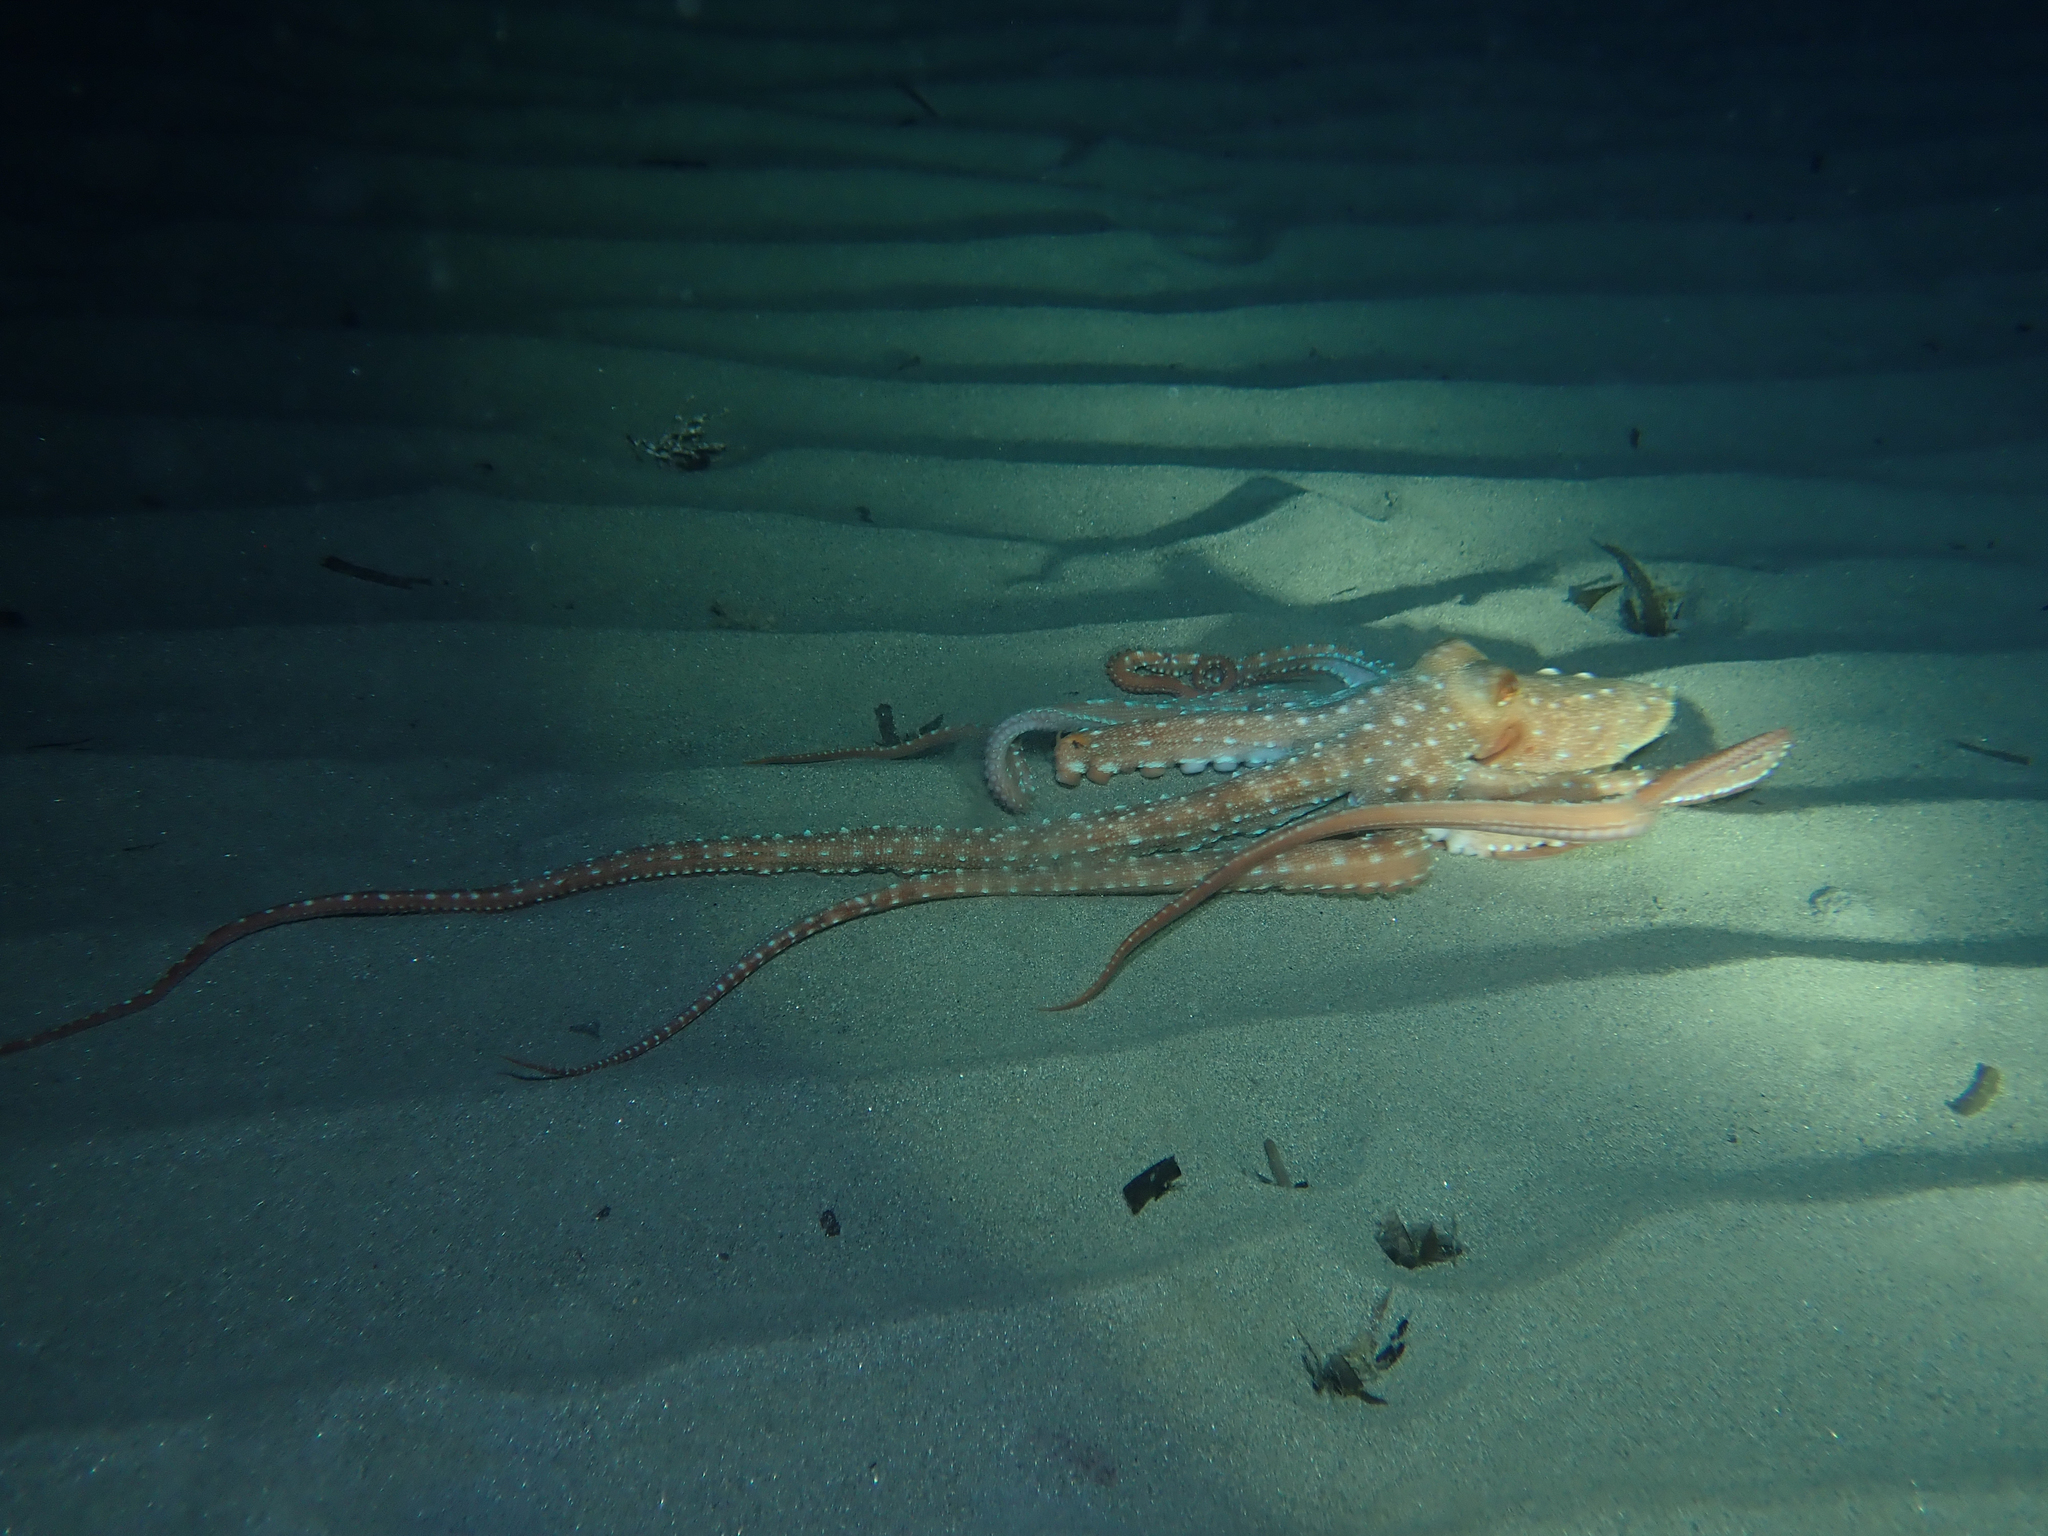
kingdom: Animalia
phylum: Mollusca
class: Cephalopoda
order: Octopoda
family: Octopodidae
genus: Callistoctopus
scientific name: Callistoctopus macropus
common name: Atlantic white-spotted octopus
